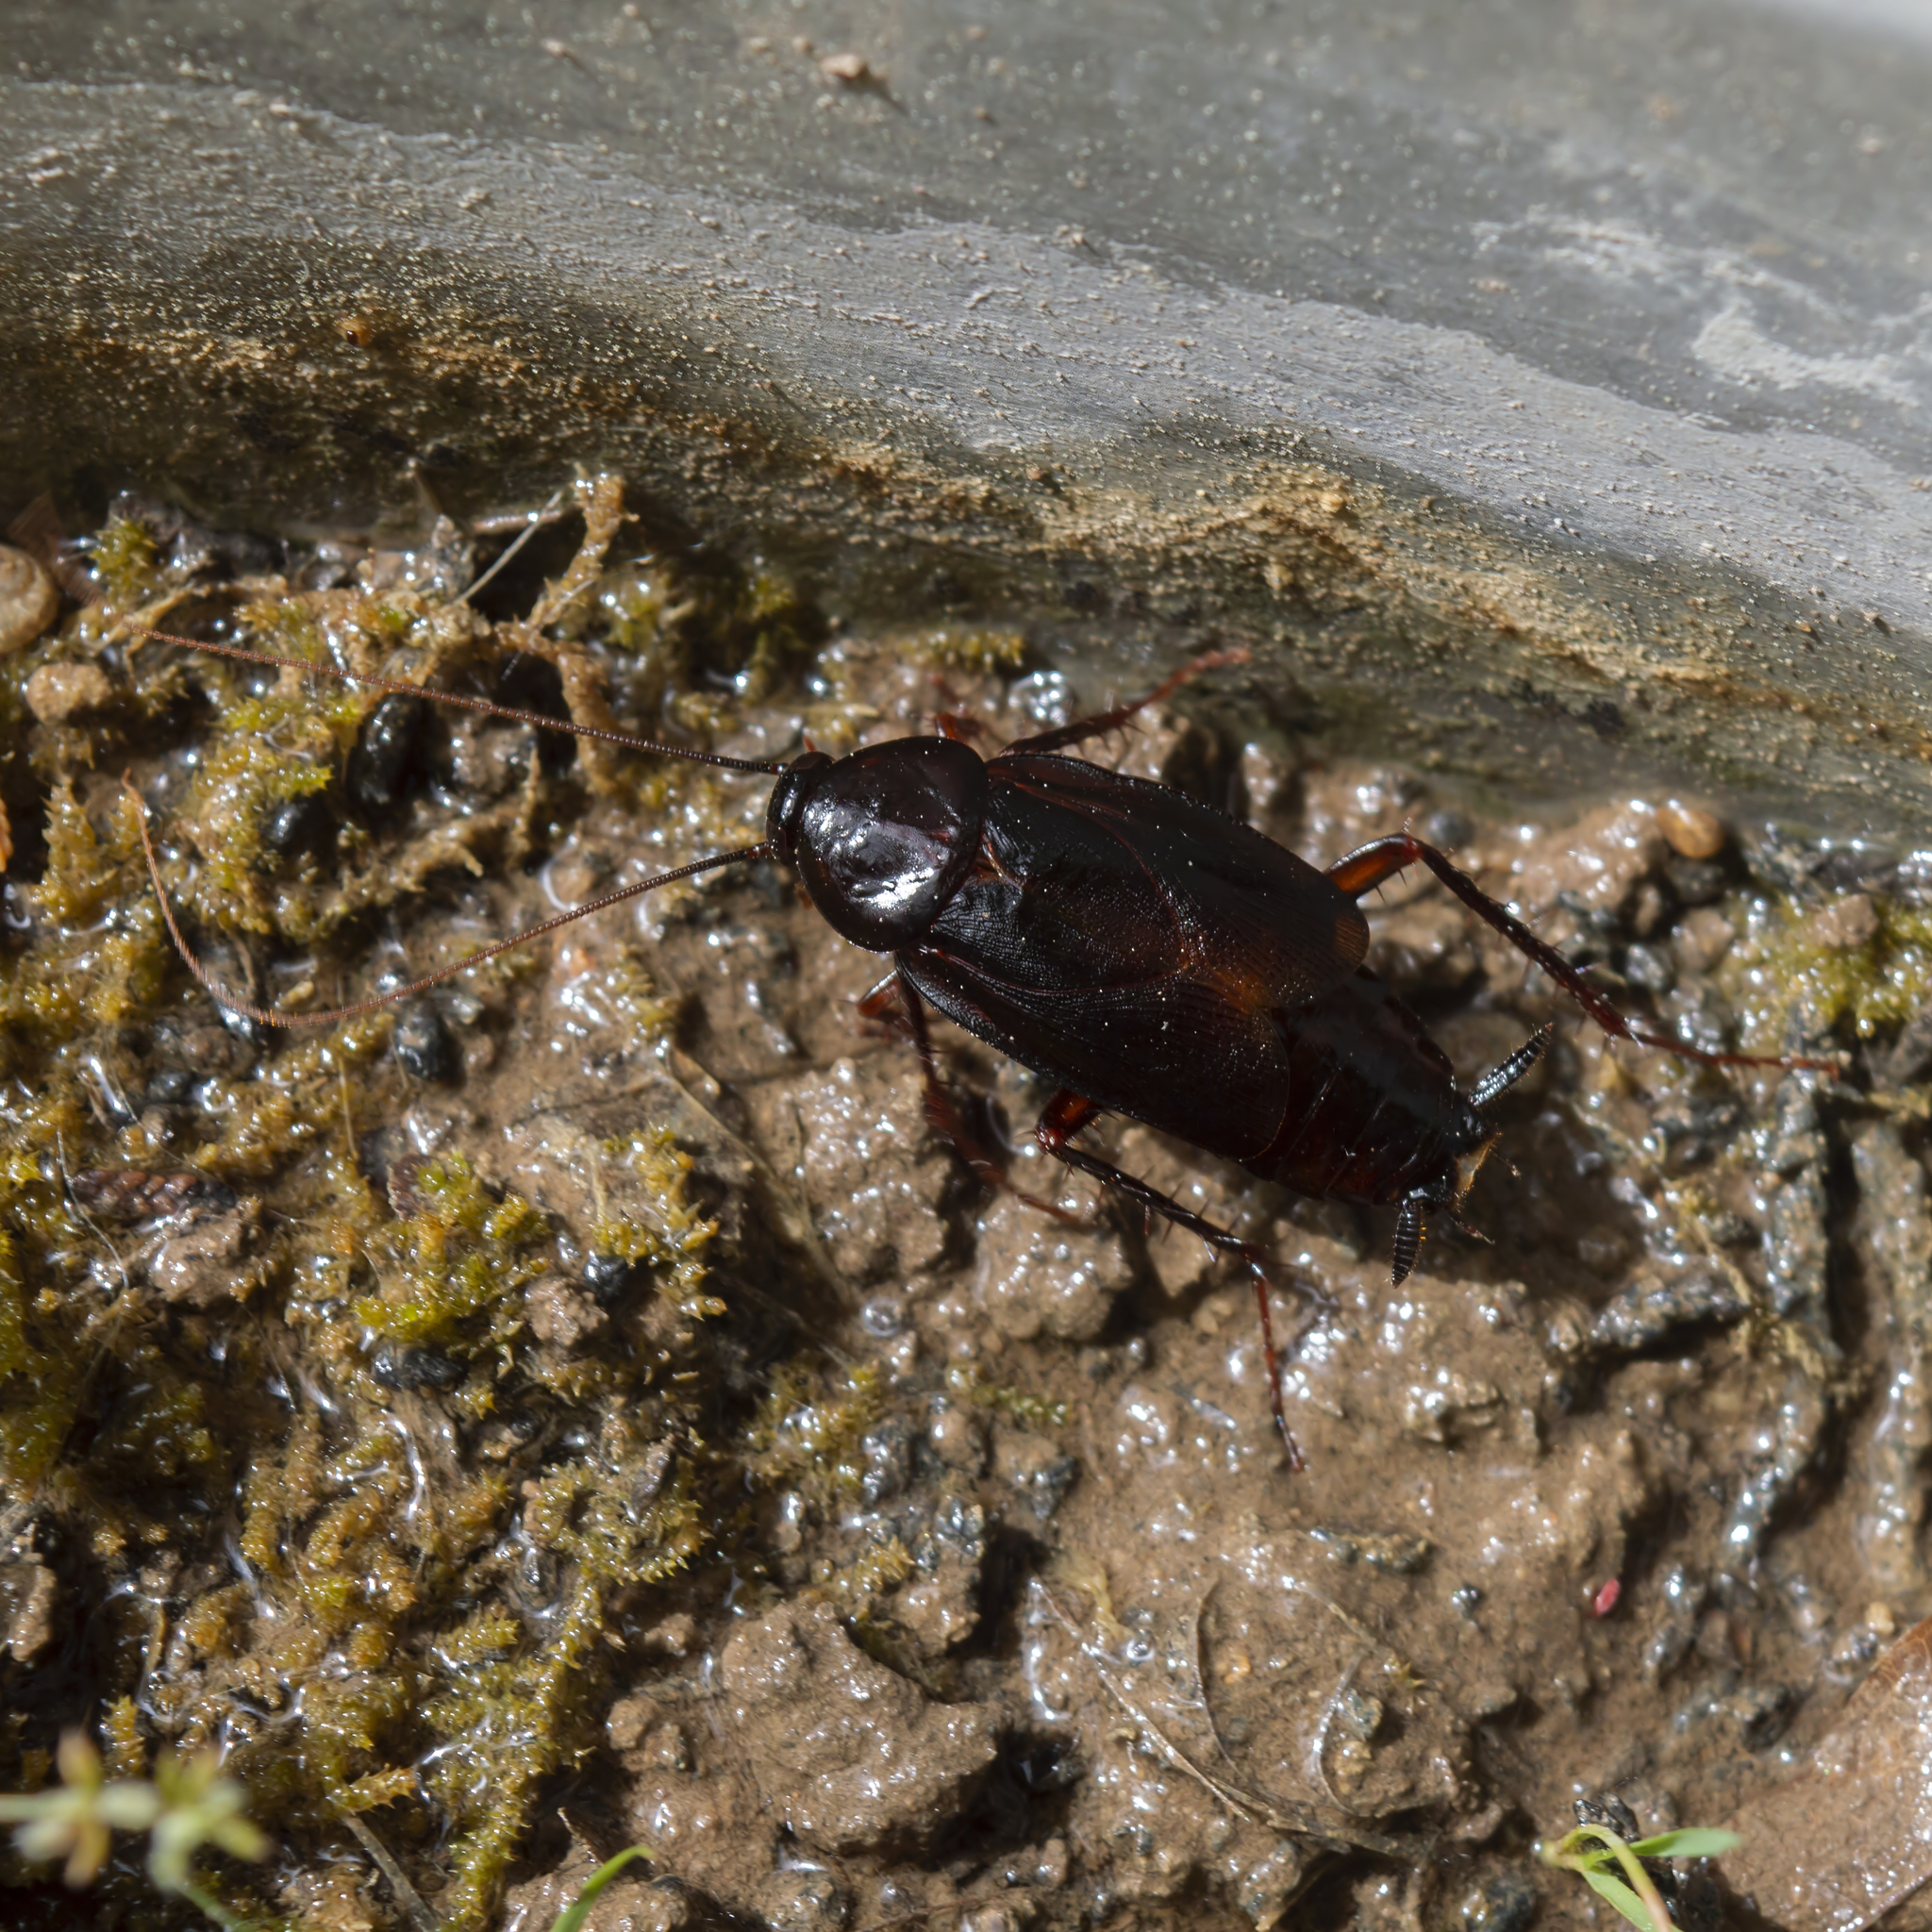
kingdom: Animalia
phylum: Arthropoda
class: Insecta
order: Blattodea
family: Blattidae
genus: Blatta
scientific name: Blatta orientalis
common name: Oriental cockroach
